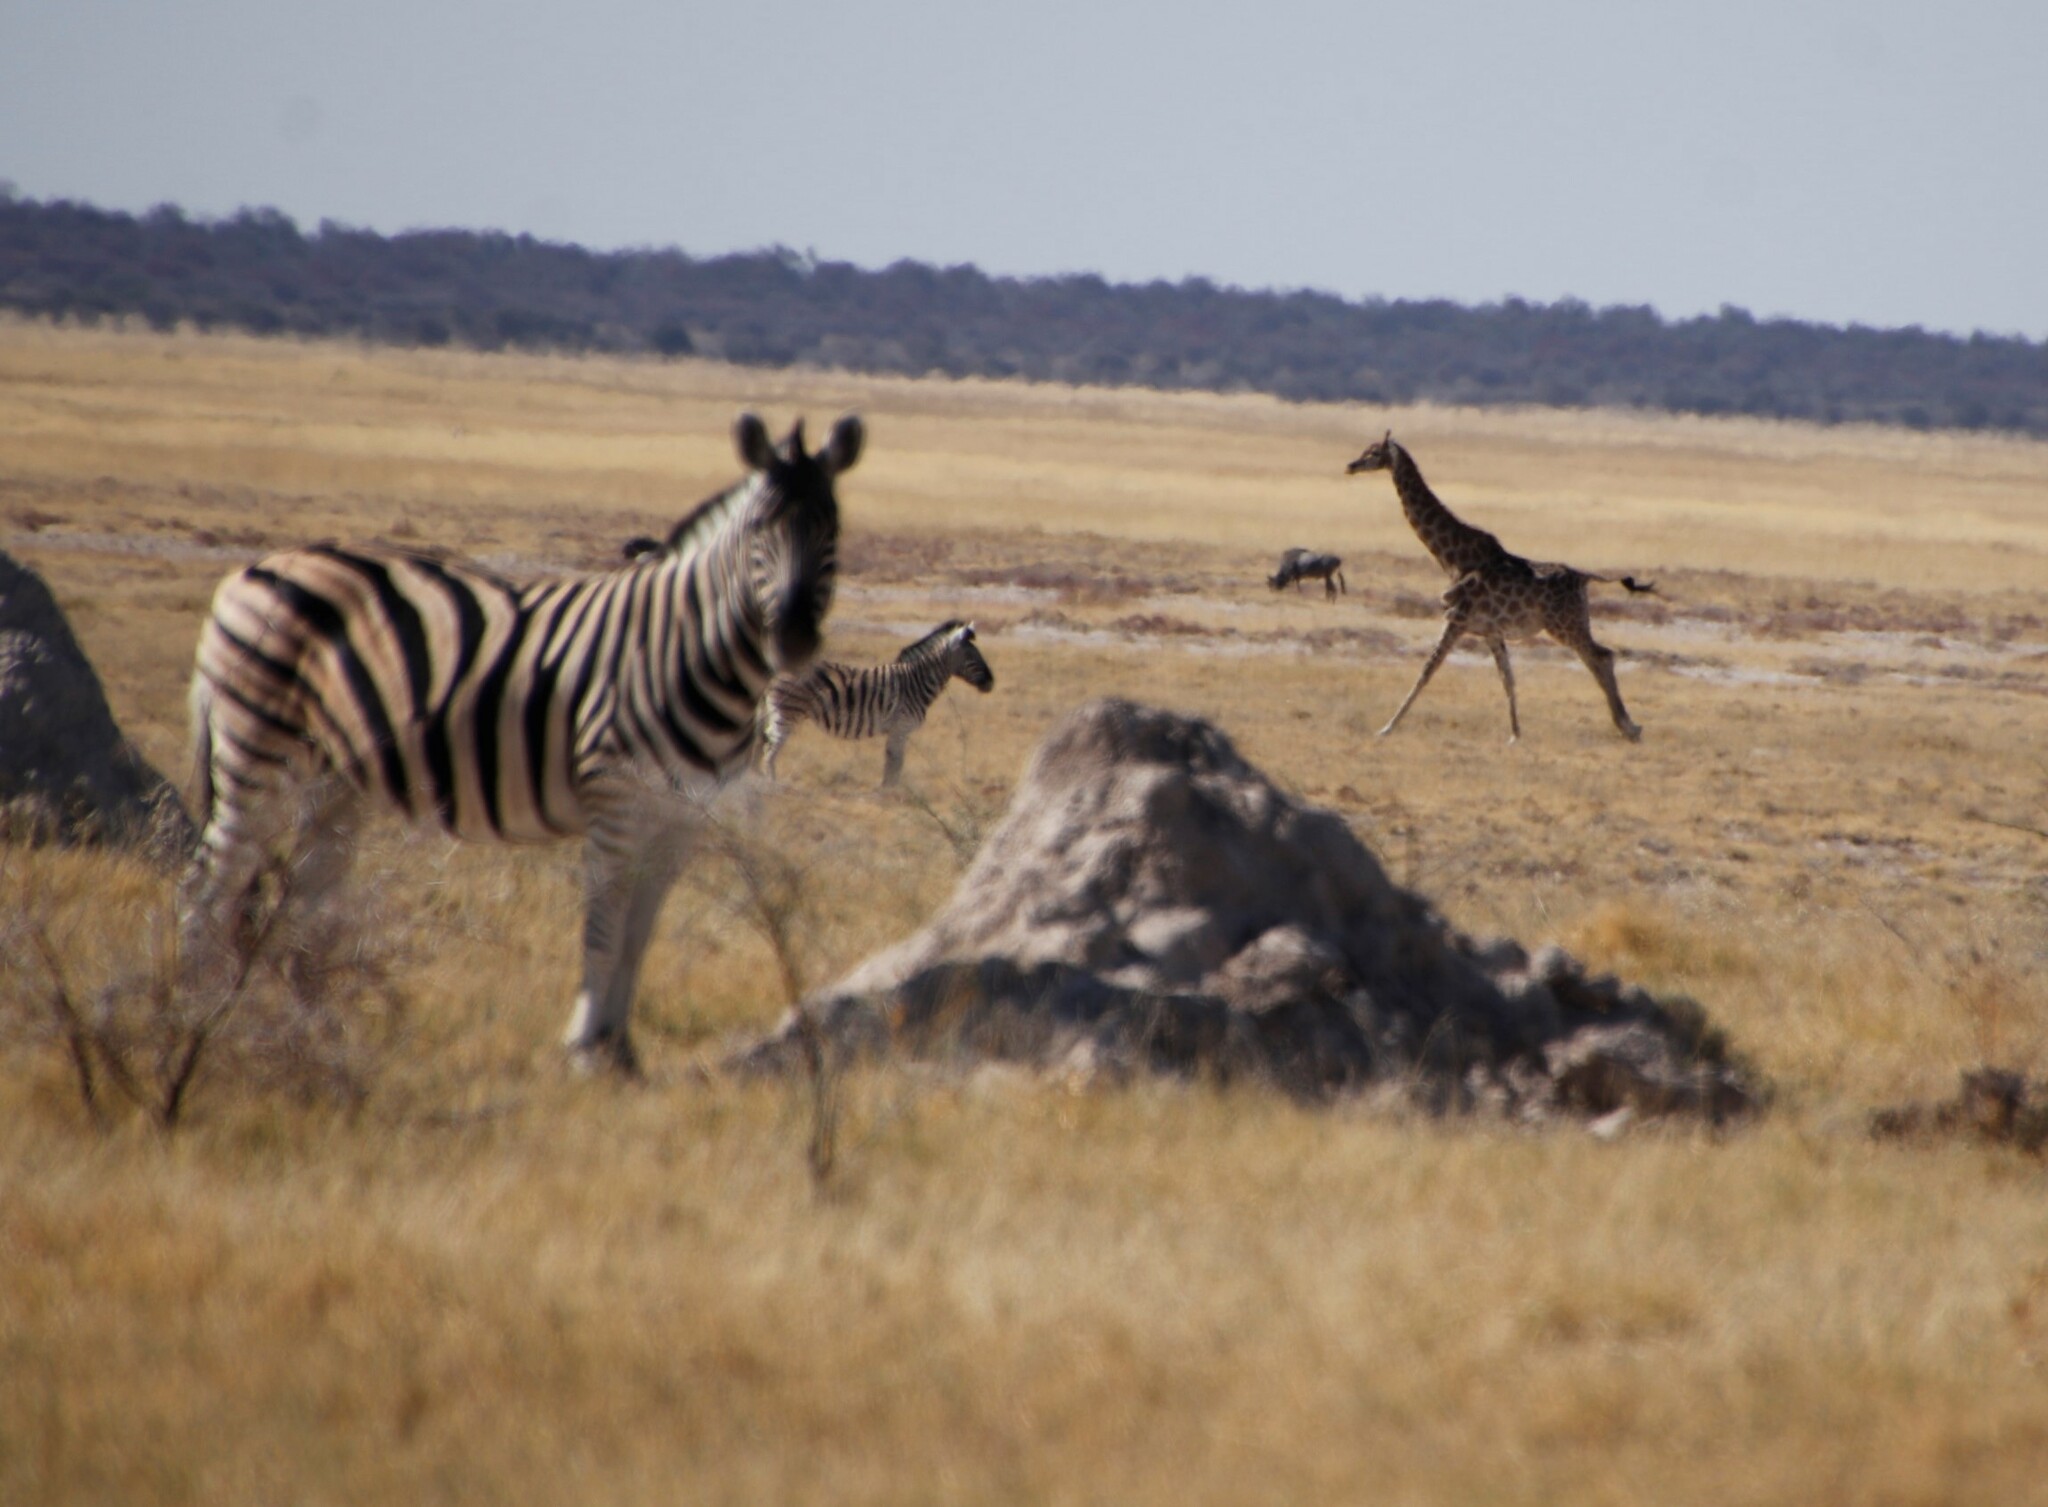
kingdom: Animalia
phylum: Chordata
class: Mammalia
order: Perissodactyla
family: Equidae
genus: Equus
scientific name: Equus quagga
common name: Plains zebra
